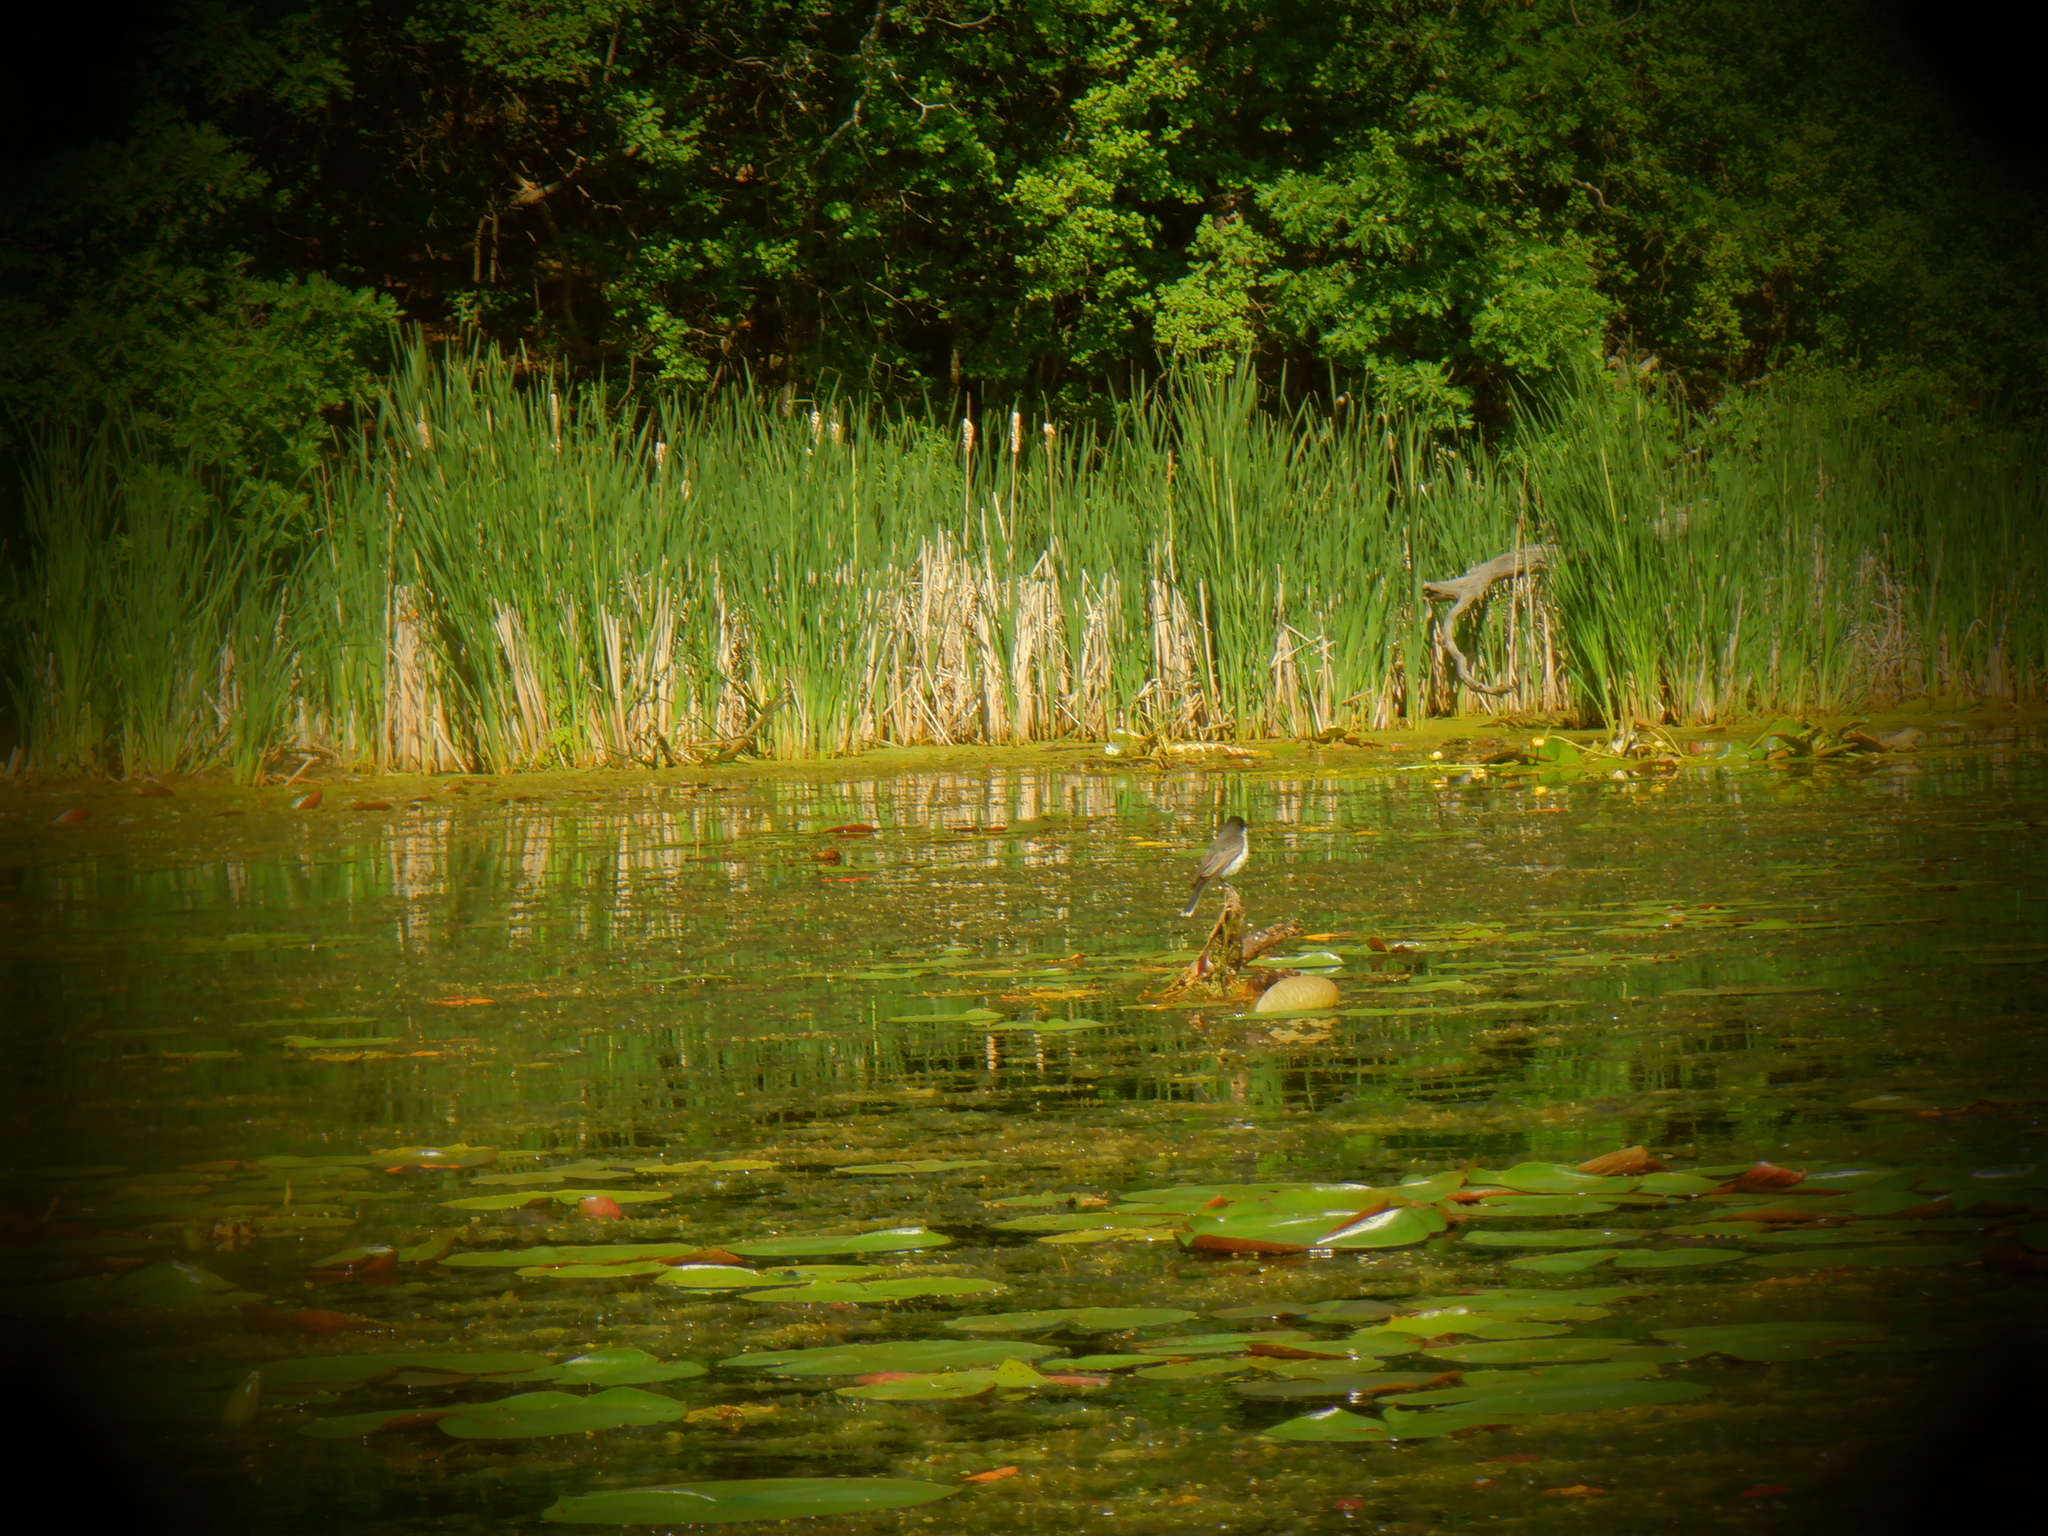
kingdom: Animalia
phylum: Chordata
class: Aves
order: Passeriformes
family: Tyrannidae
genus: Tyrannus
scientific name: Tyrannus tyrannus
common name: Eastern kingbird
